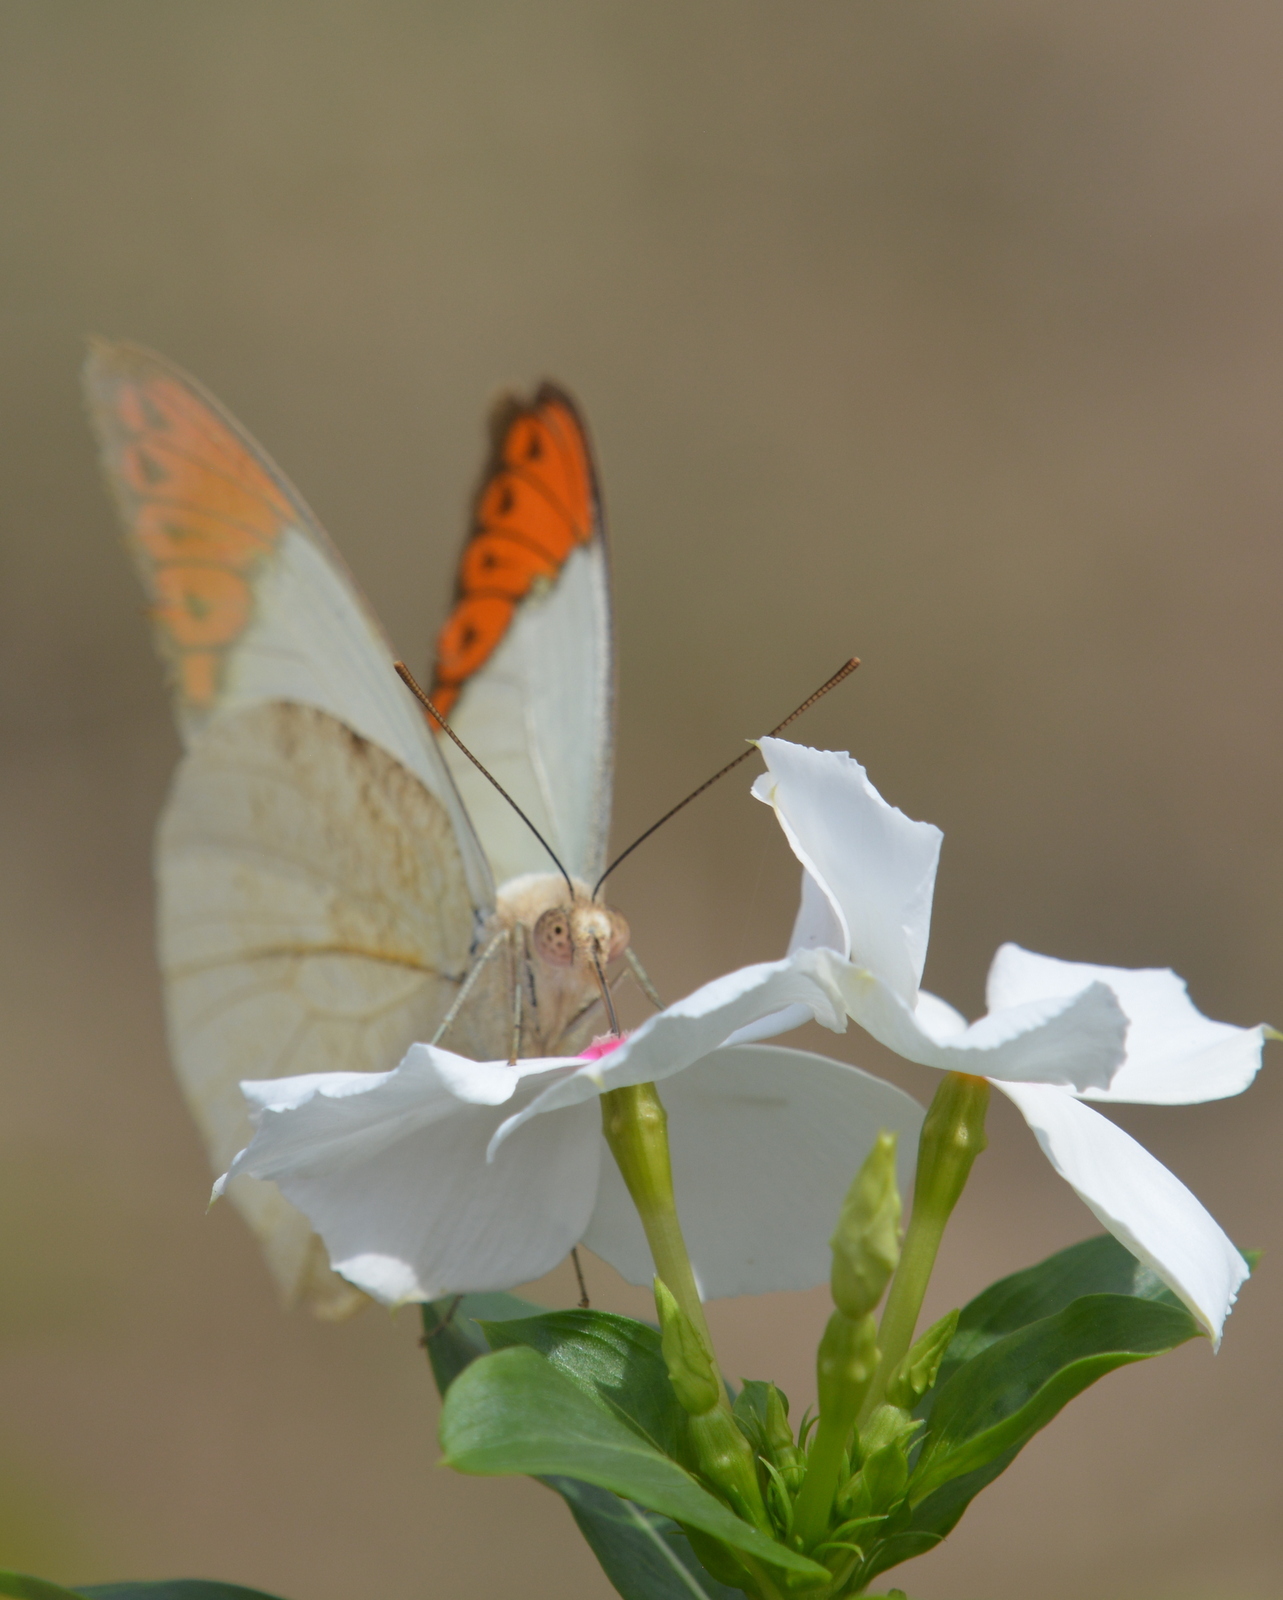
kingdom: Animalia
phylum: Arthropoda
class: Insecta
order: Lepidoptera
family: Pieridae
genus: Hebomoia
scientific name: Hebomoia glaucippe
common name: Great orange tip
